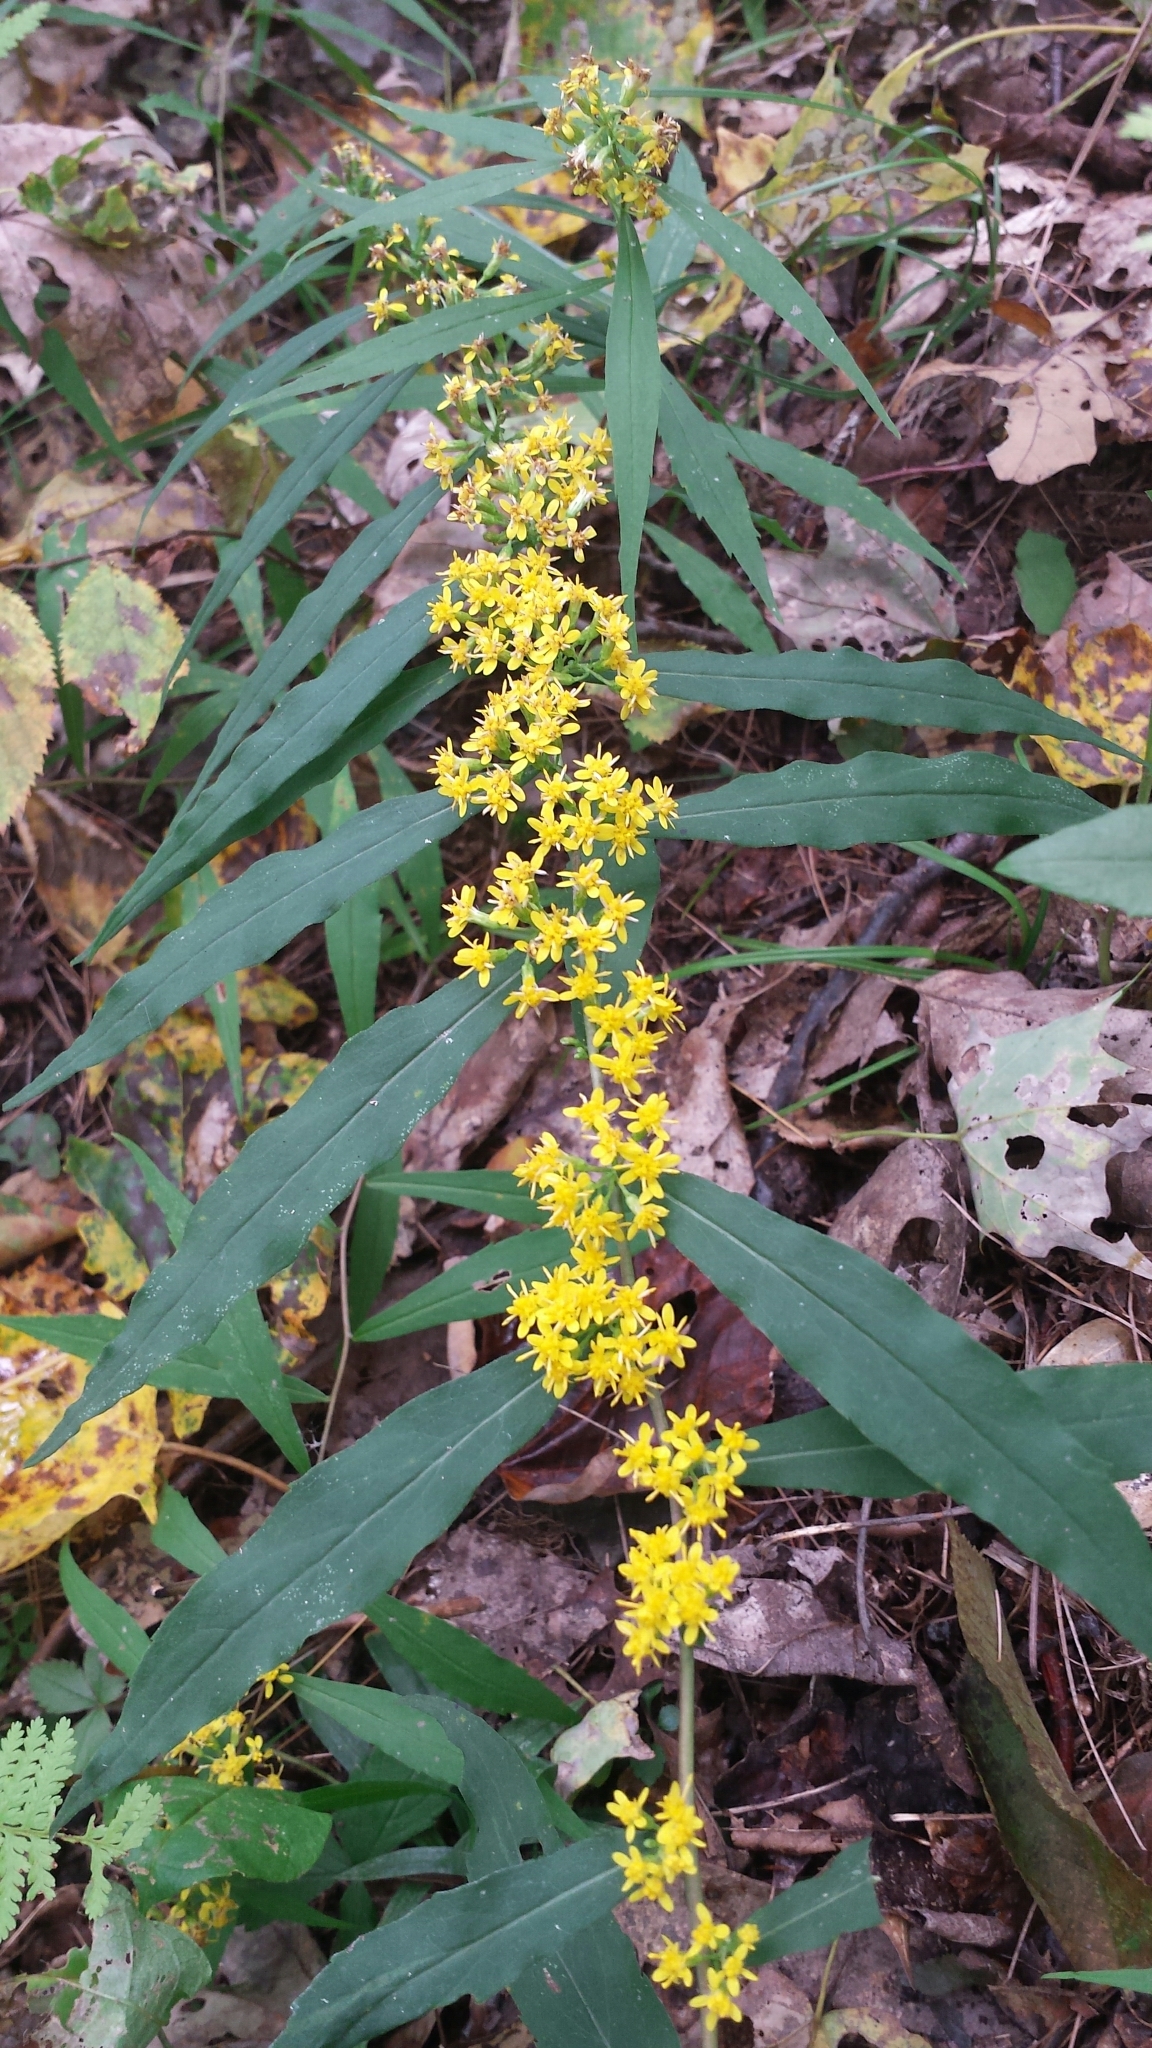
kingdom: Plantae
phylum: Tracheophyta
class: Magnoliopsida
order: Asterales
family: Asteraceae
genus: Solidago
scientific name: Solidago caesia
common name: Woodland goldenrod
